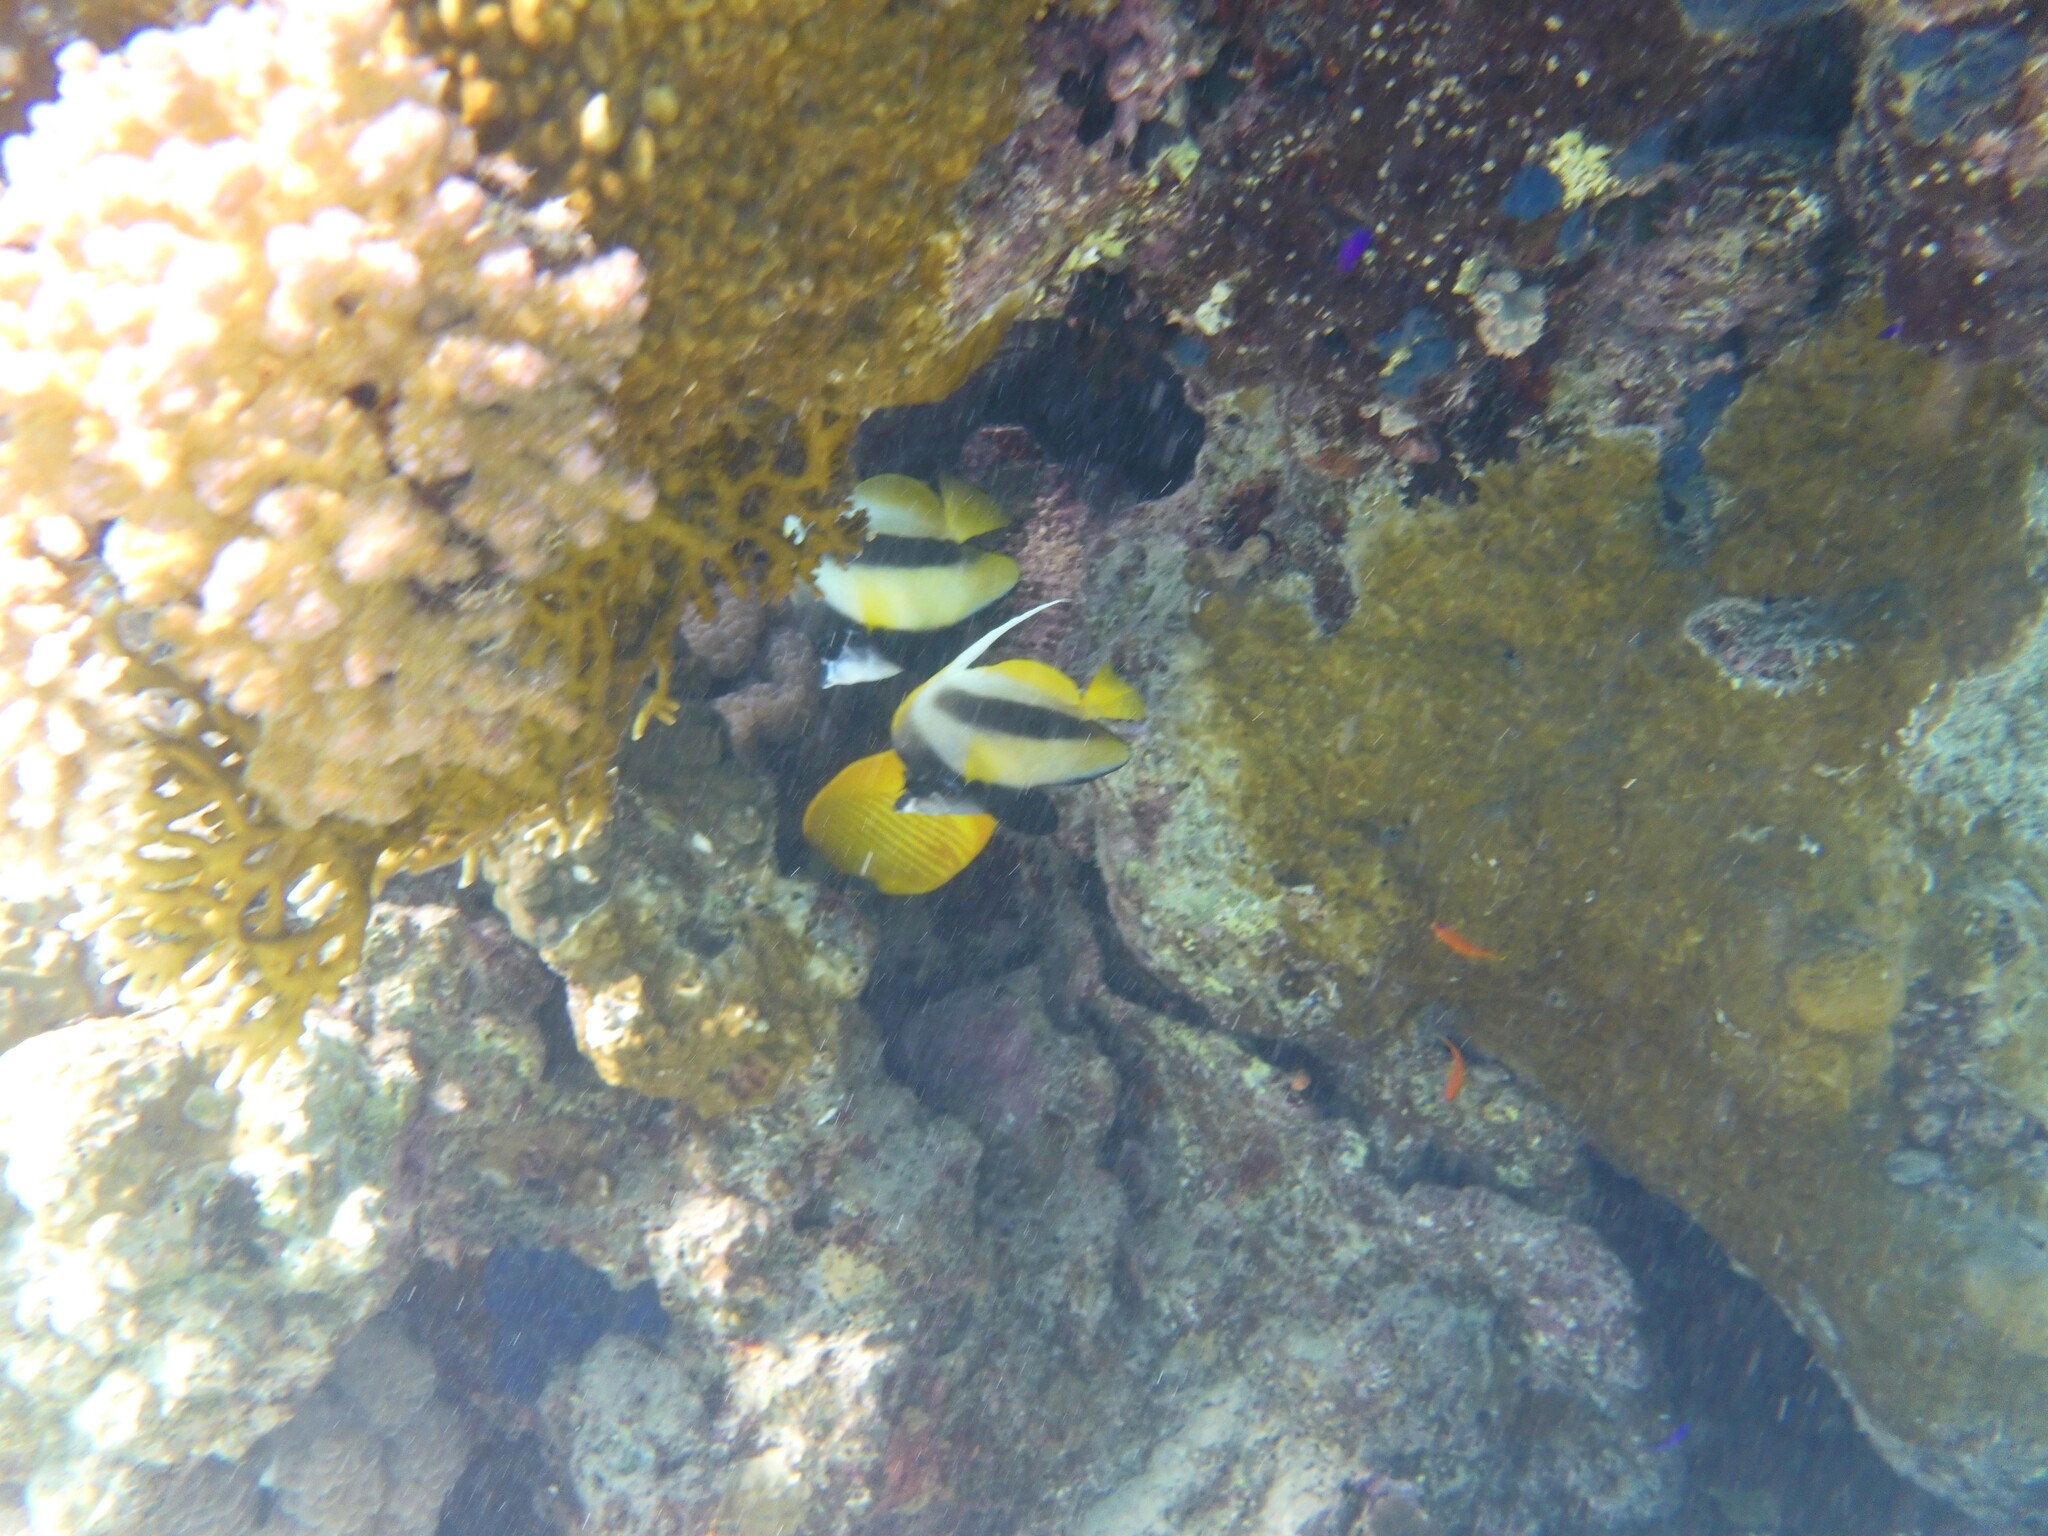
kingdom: Animalia
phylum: Chordata
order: Perciformes
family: Chaetodontidae
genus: Heniochus
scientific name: Heniochus intermedius
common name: Red sea bannerfish
